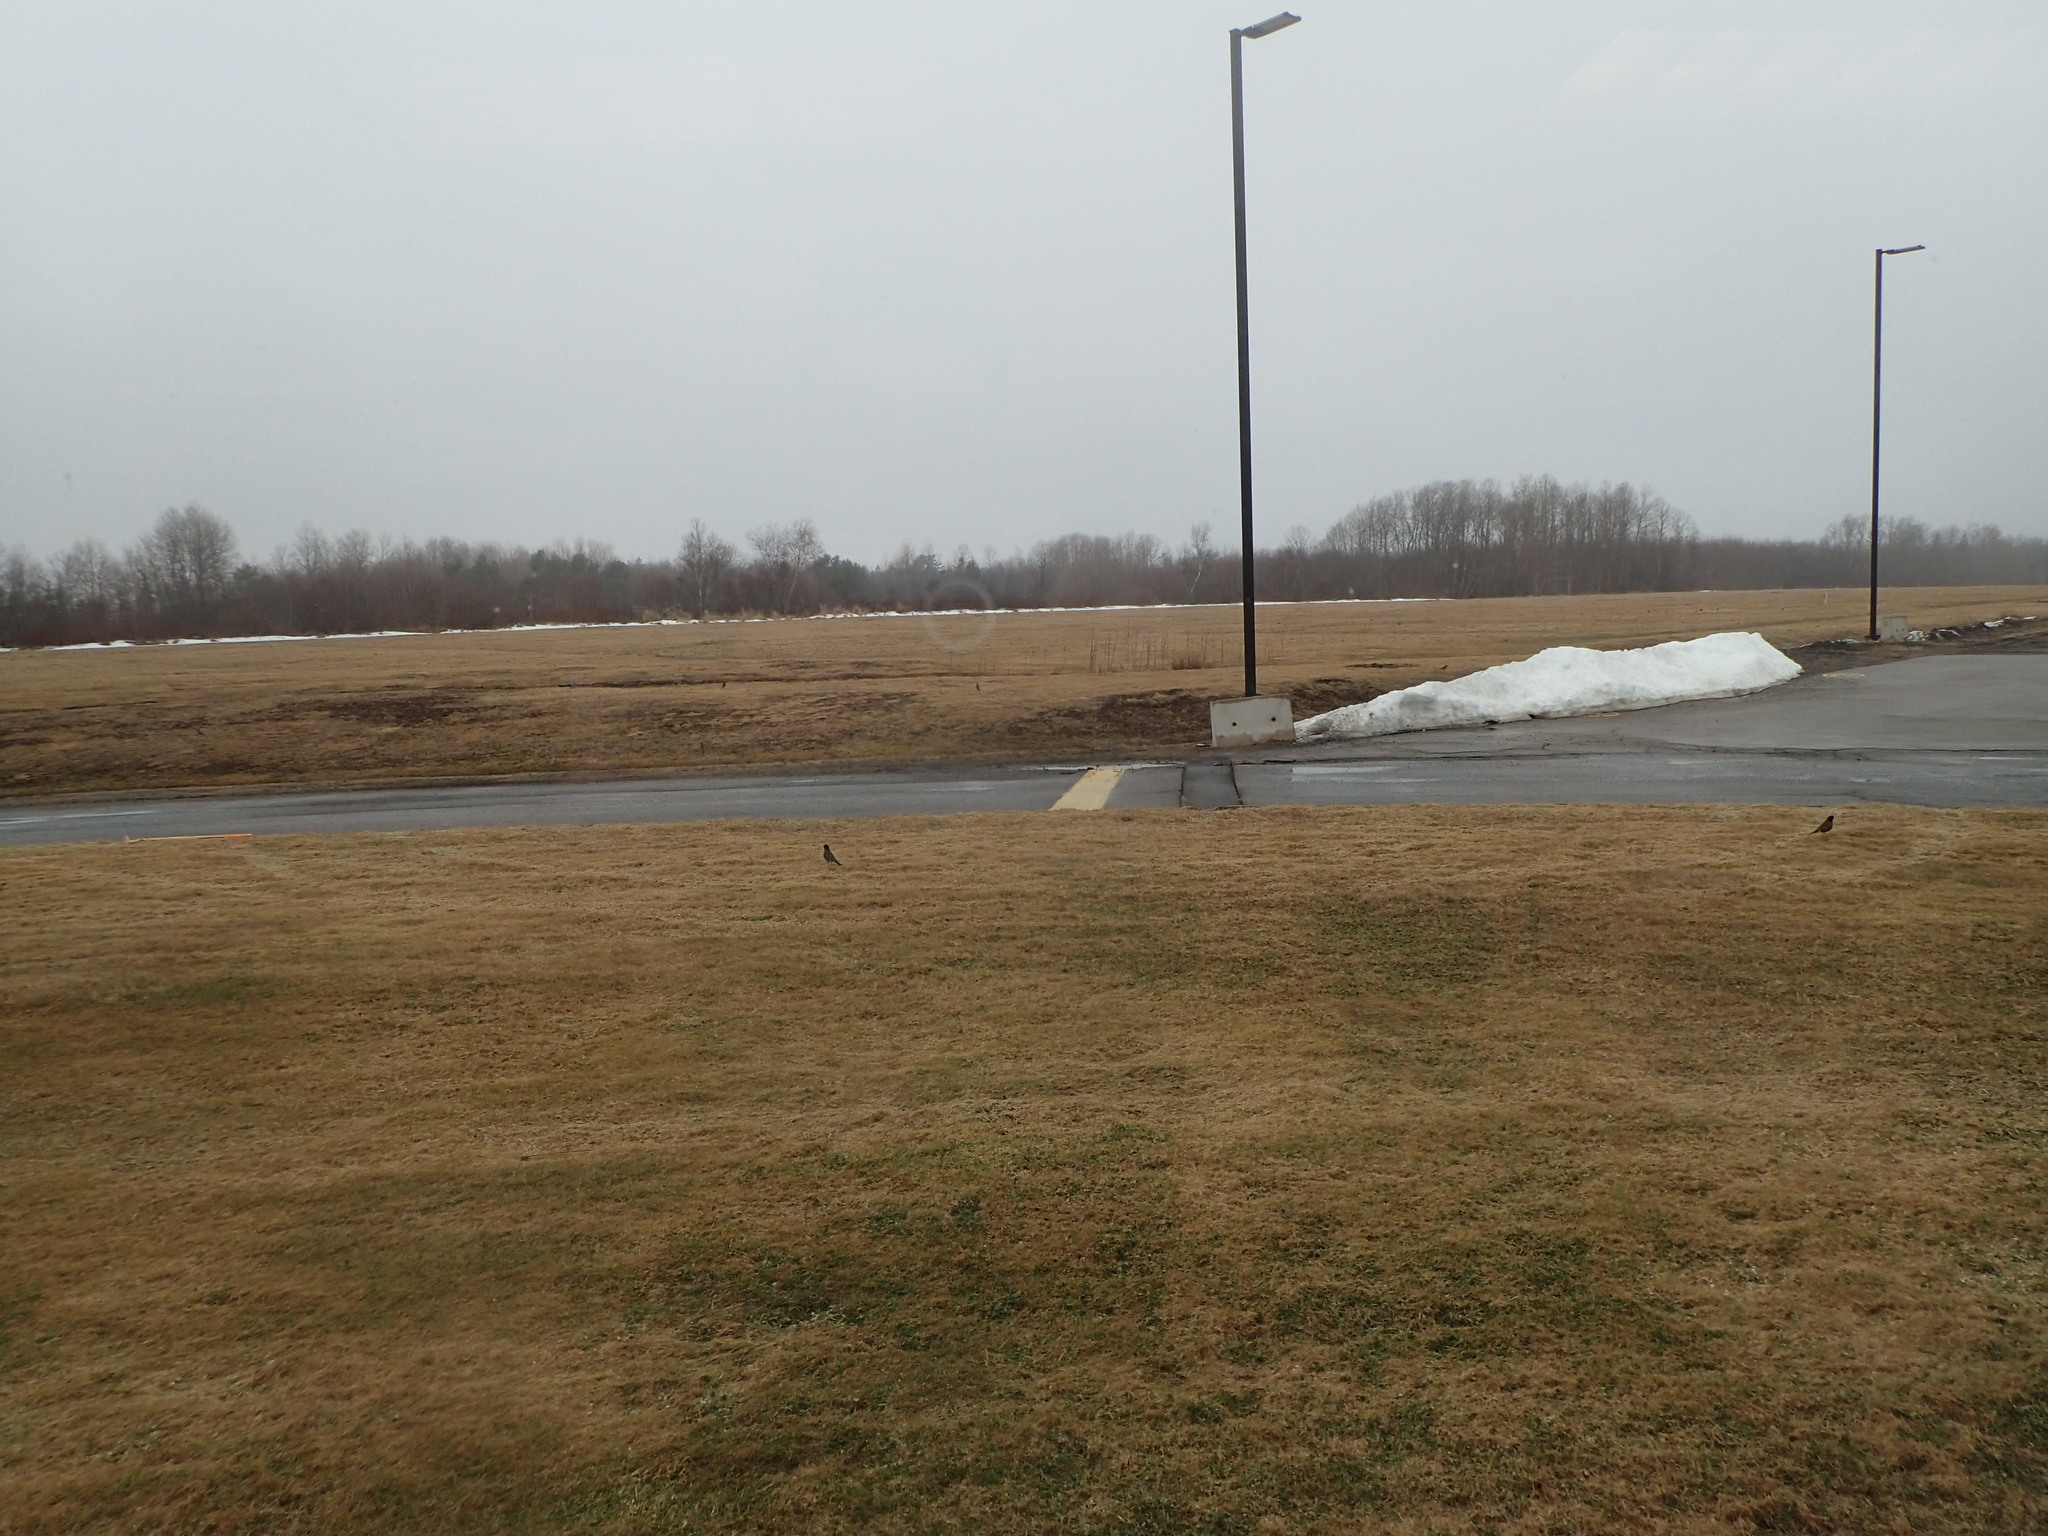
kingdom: Animalia
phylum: Chordata
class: Aves
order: Passeriformes
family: Turdidae
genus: Turdus
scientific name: Turdus migratorius
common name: American robin
